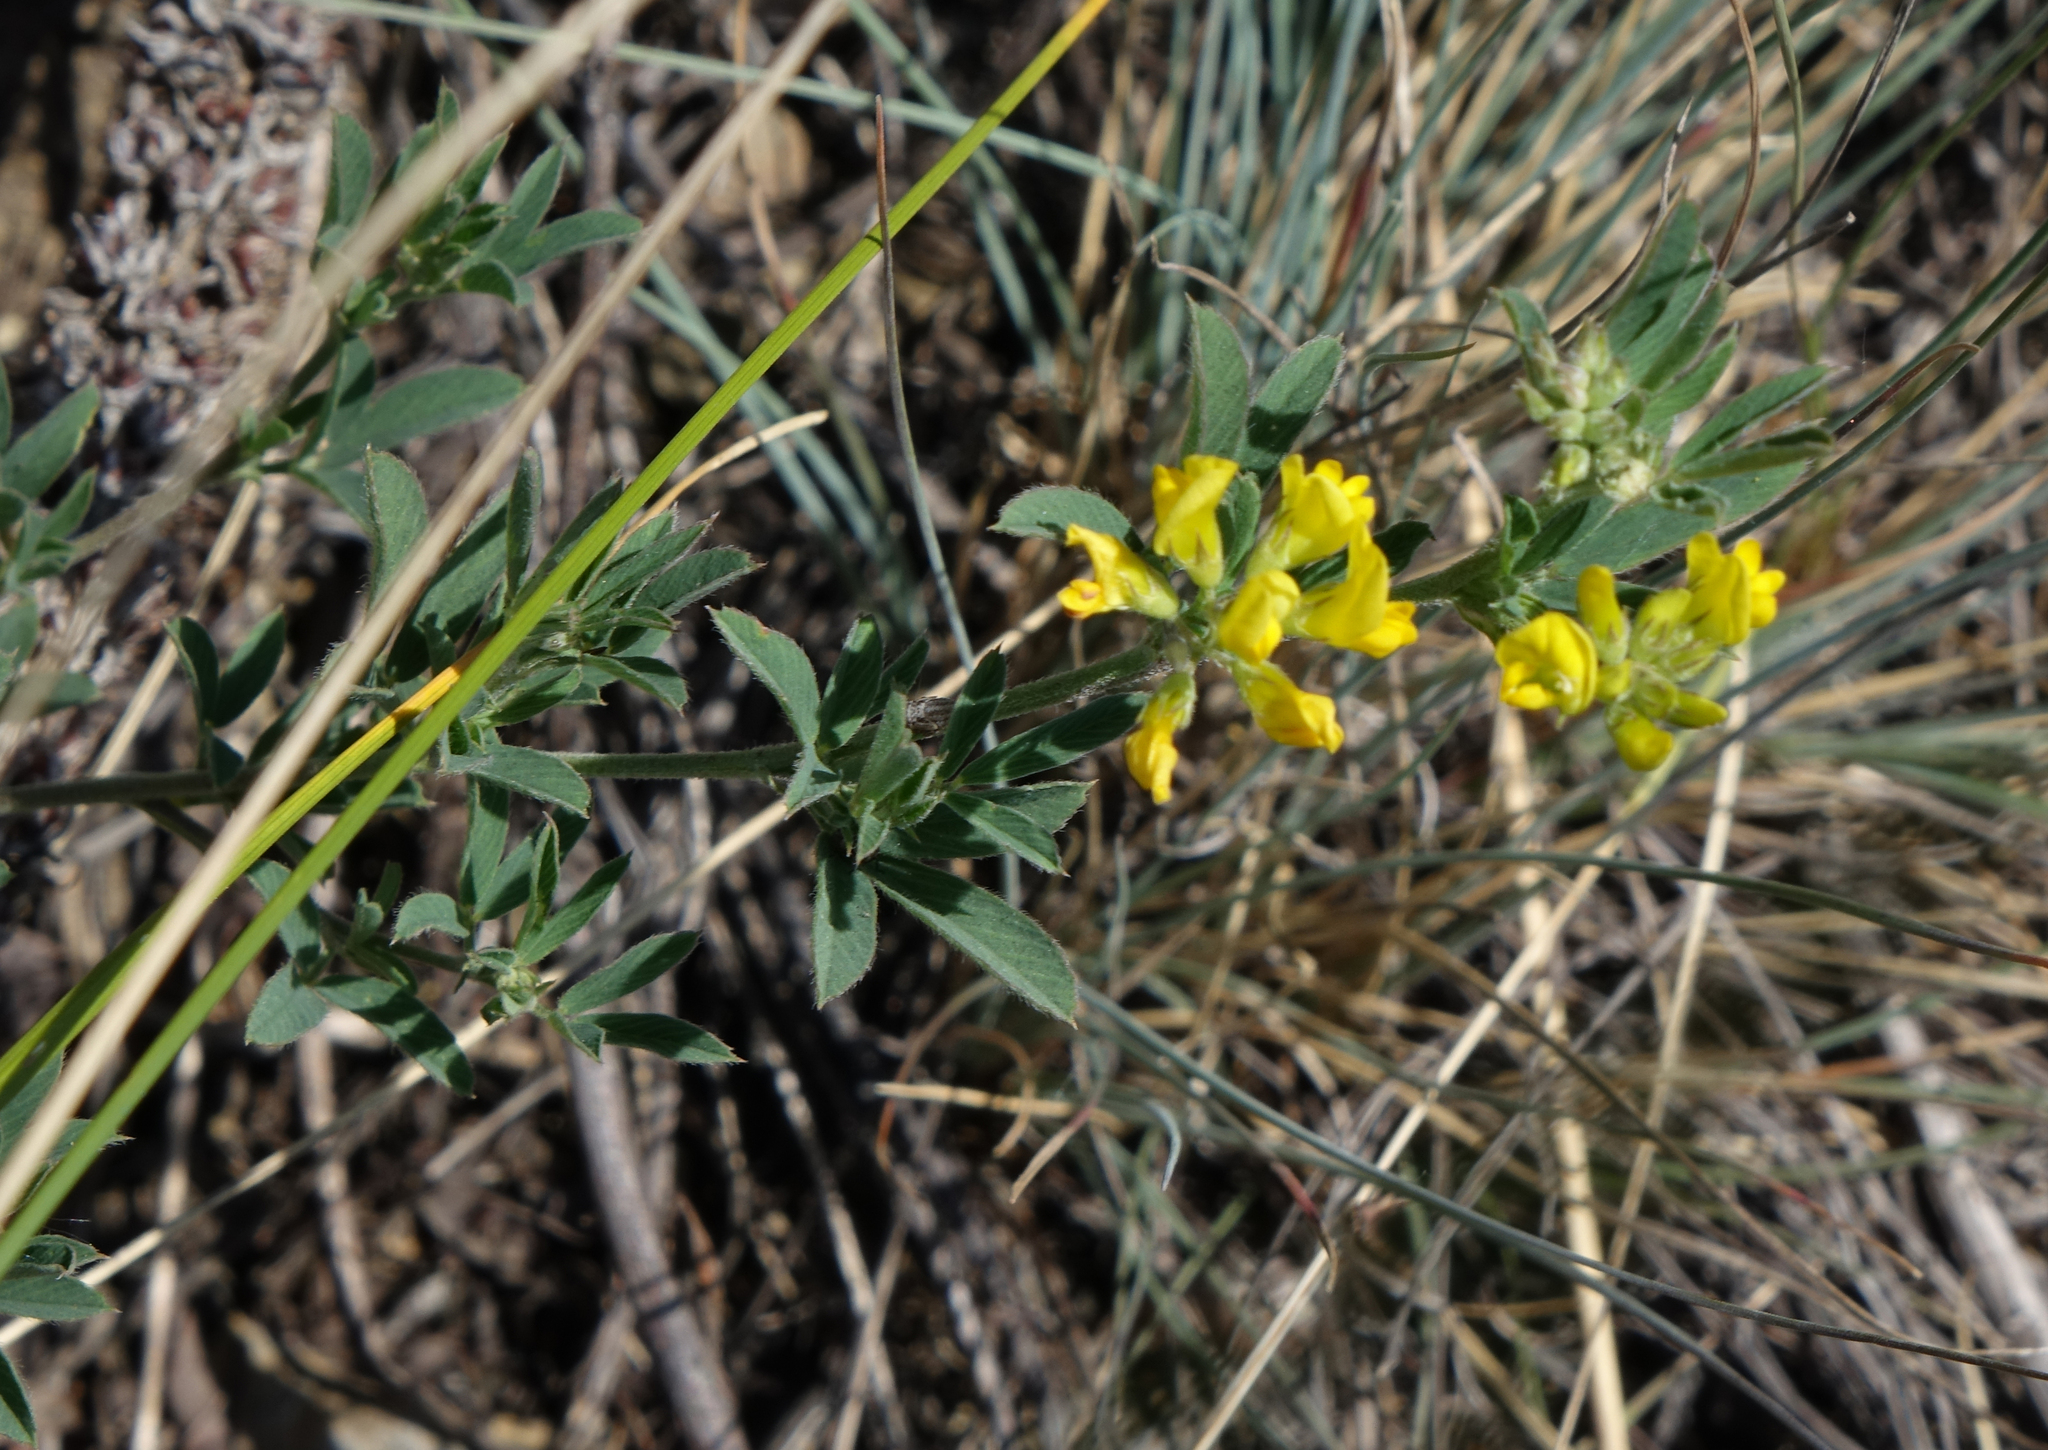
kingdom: Plantae
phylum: Tracheophyta
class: Magnoliopsida
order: Fabales
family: Fabaceae
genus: Medicago
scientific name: Medicago falcata
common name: Sickle medick
